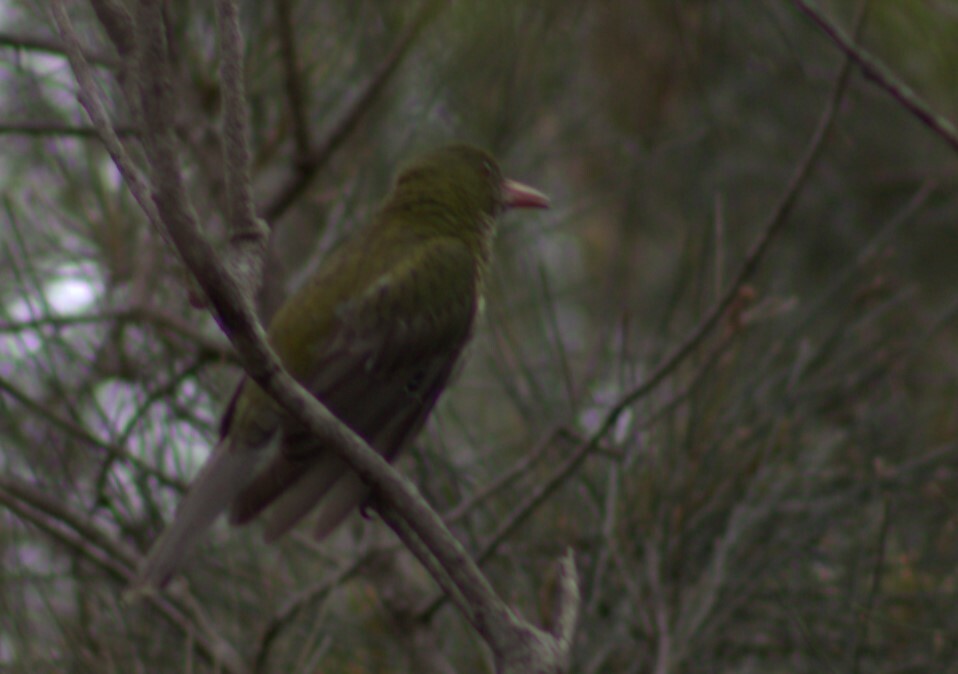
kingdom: Animalia
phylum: Chordata
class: Aves
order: Passeriformes
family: Oriolidae
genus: Oriolus
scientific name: Oriolus sagittatus
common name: Olive-backed oriole
